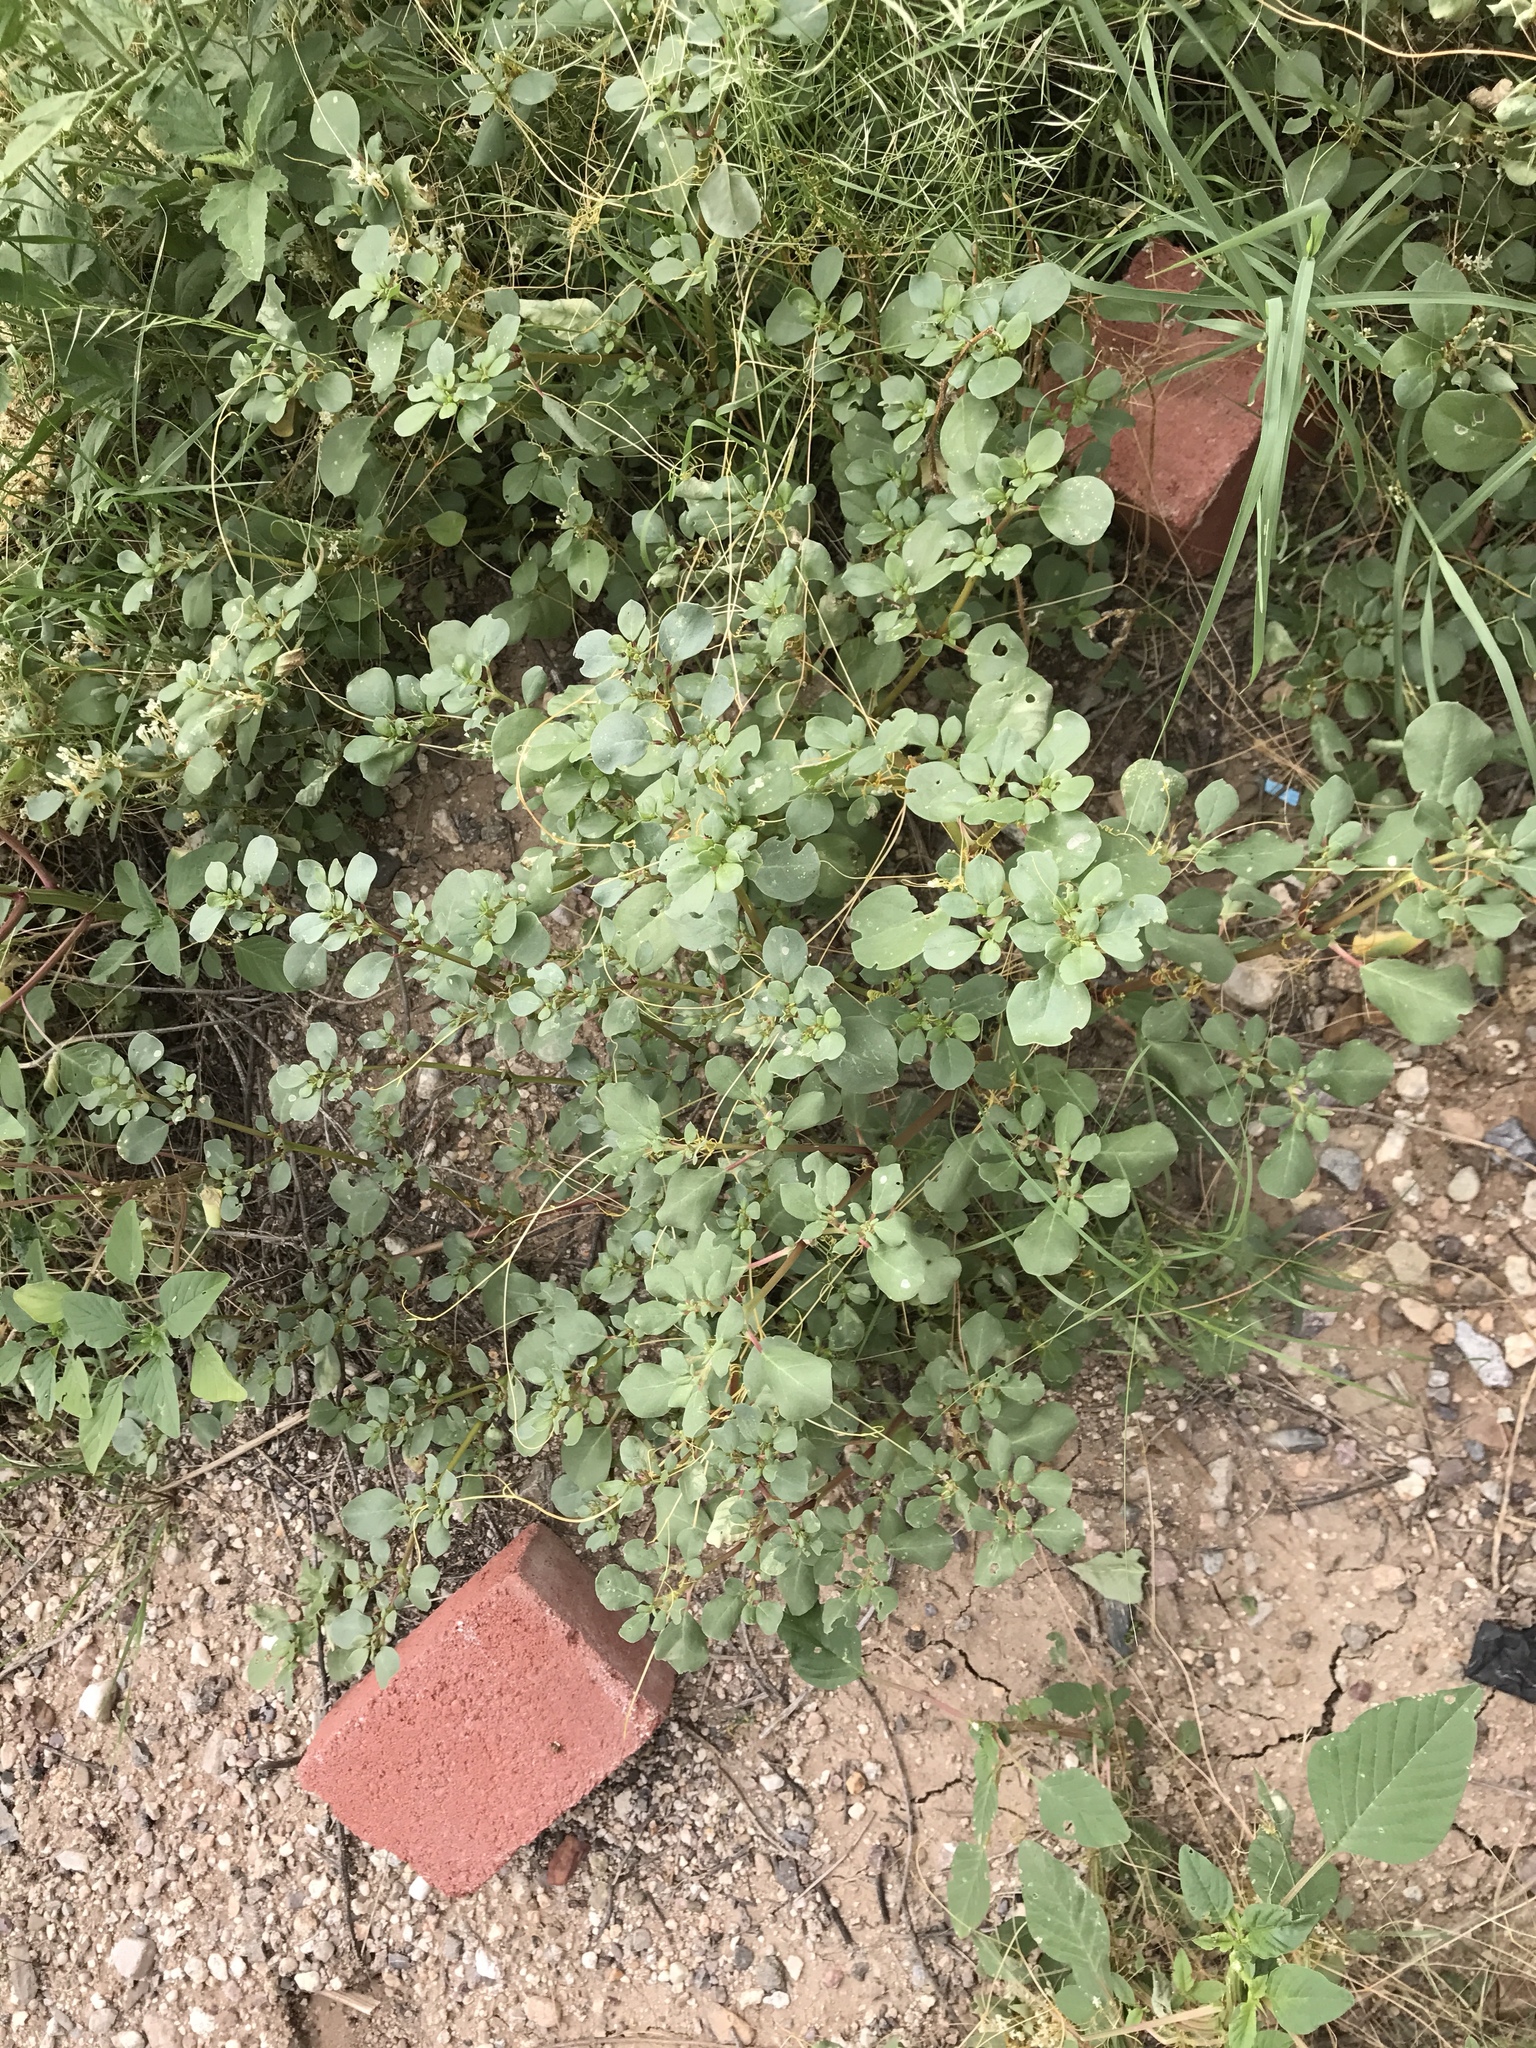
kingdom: Plantae
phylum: Tracheophyta
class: Magnoliopsida
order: Caryophyllales
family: Aizoaceae
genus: Trianthema
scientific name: Trianthema portulacastrum
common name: Desert horsepurslane
